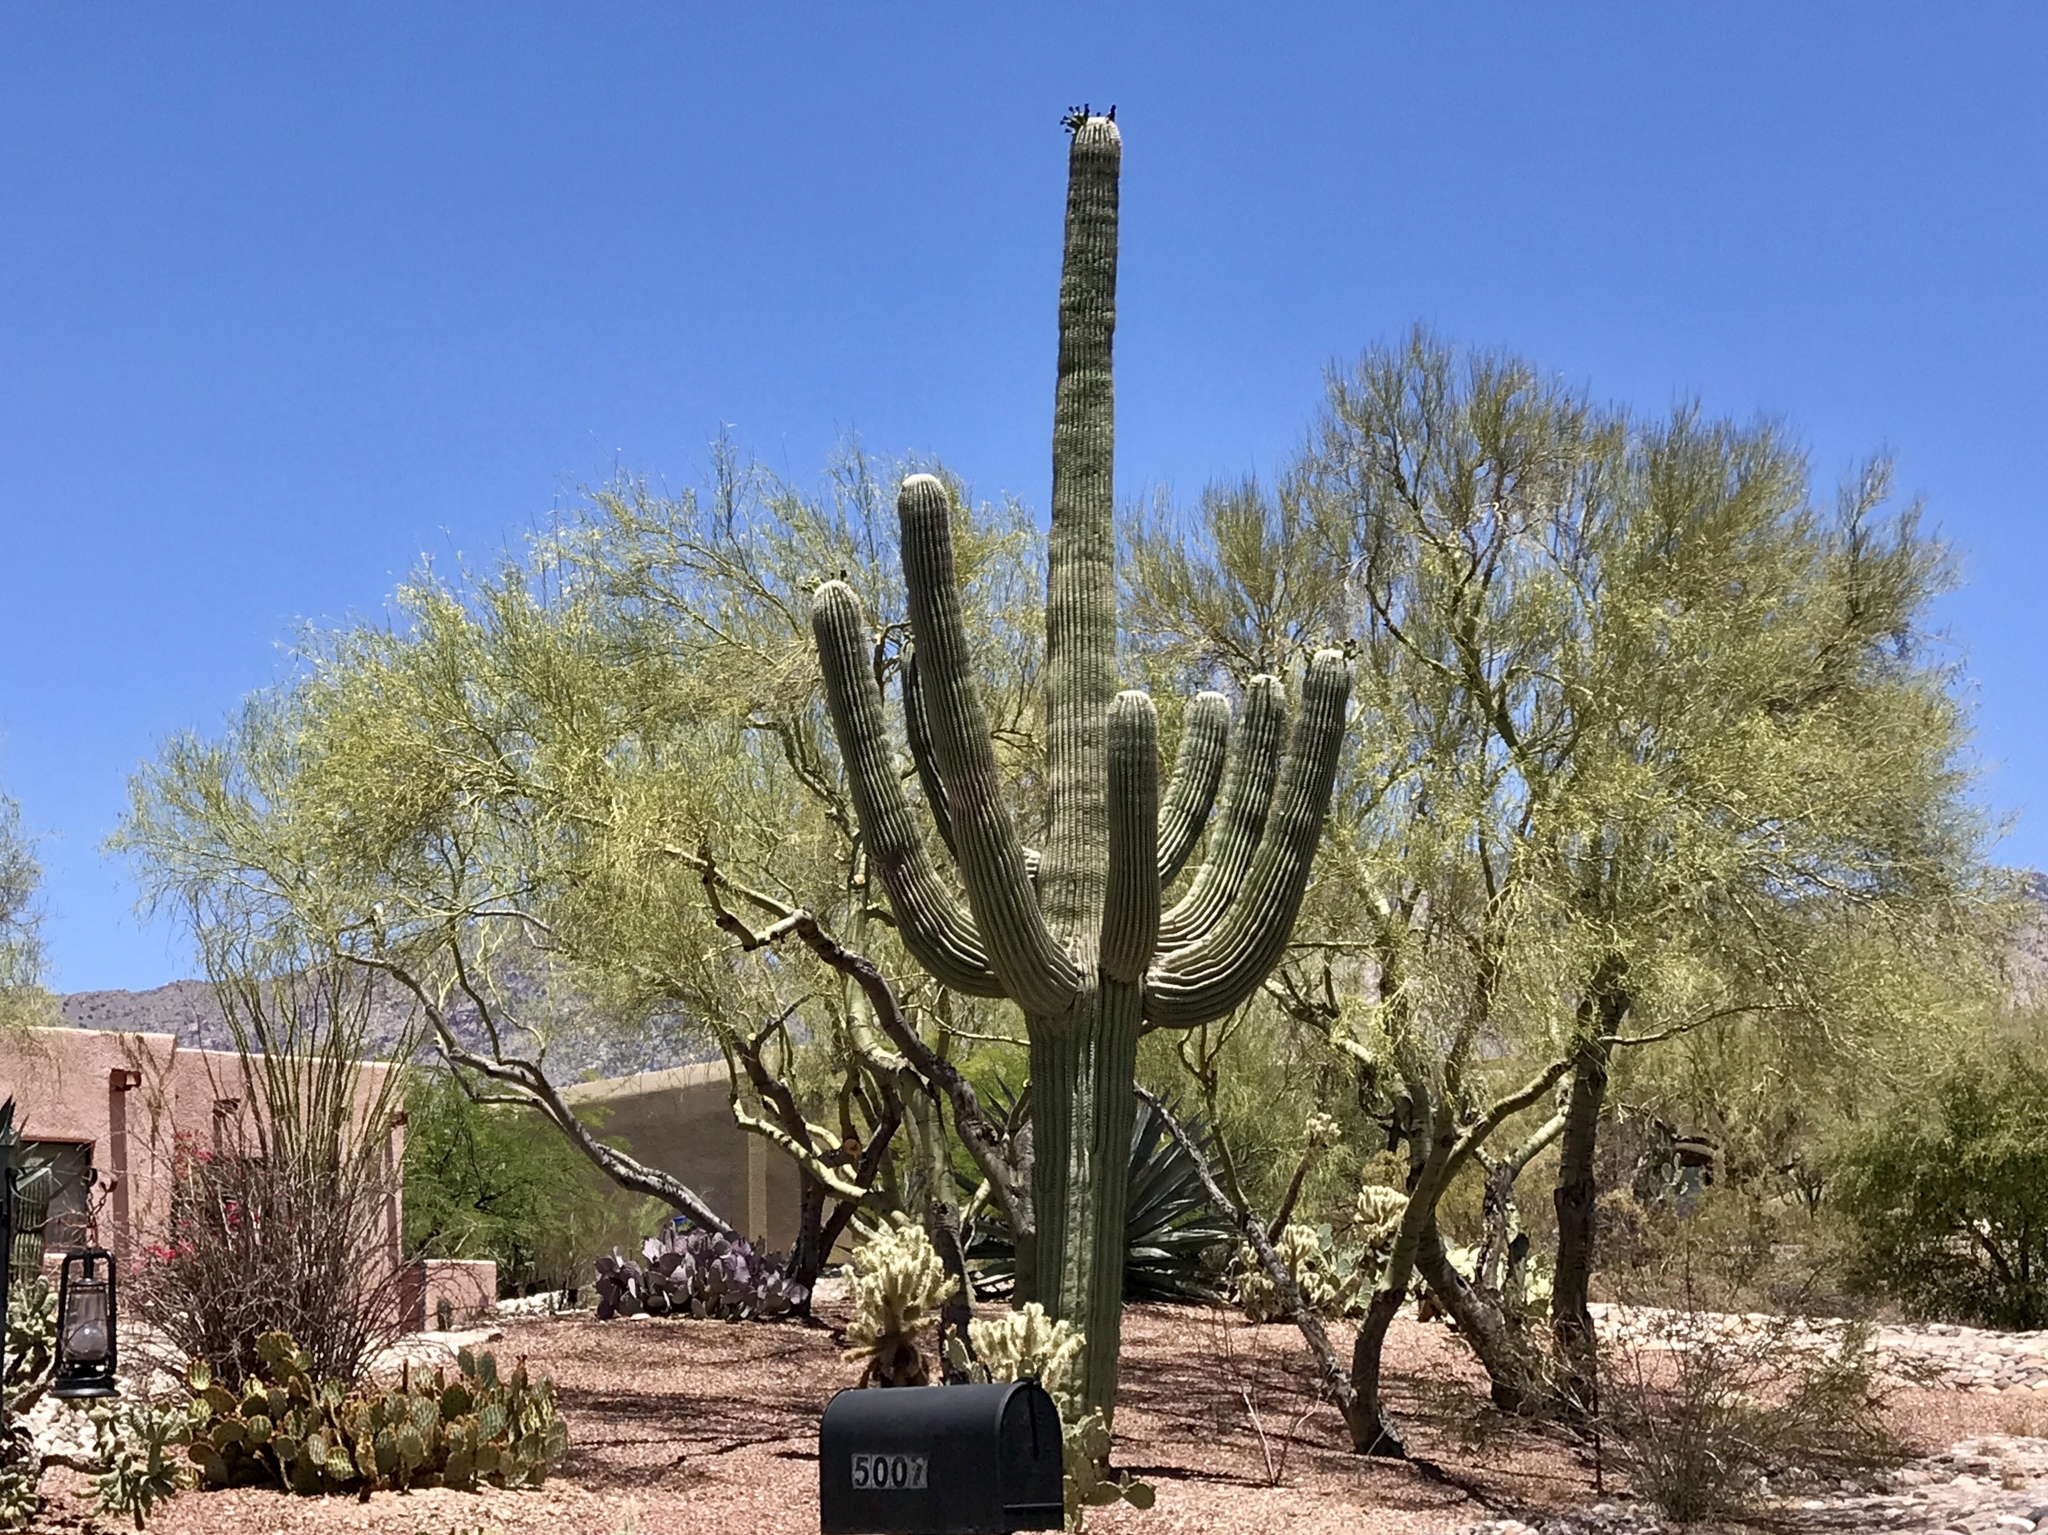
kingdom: Plantae
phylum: Tracheophyta
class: Magnoliopsida
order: Caryophyllales
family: Cactaceae
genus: Carnegiea
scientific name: Carnegiea gigantea
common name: Saguaro
